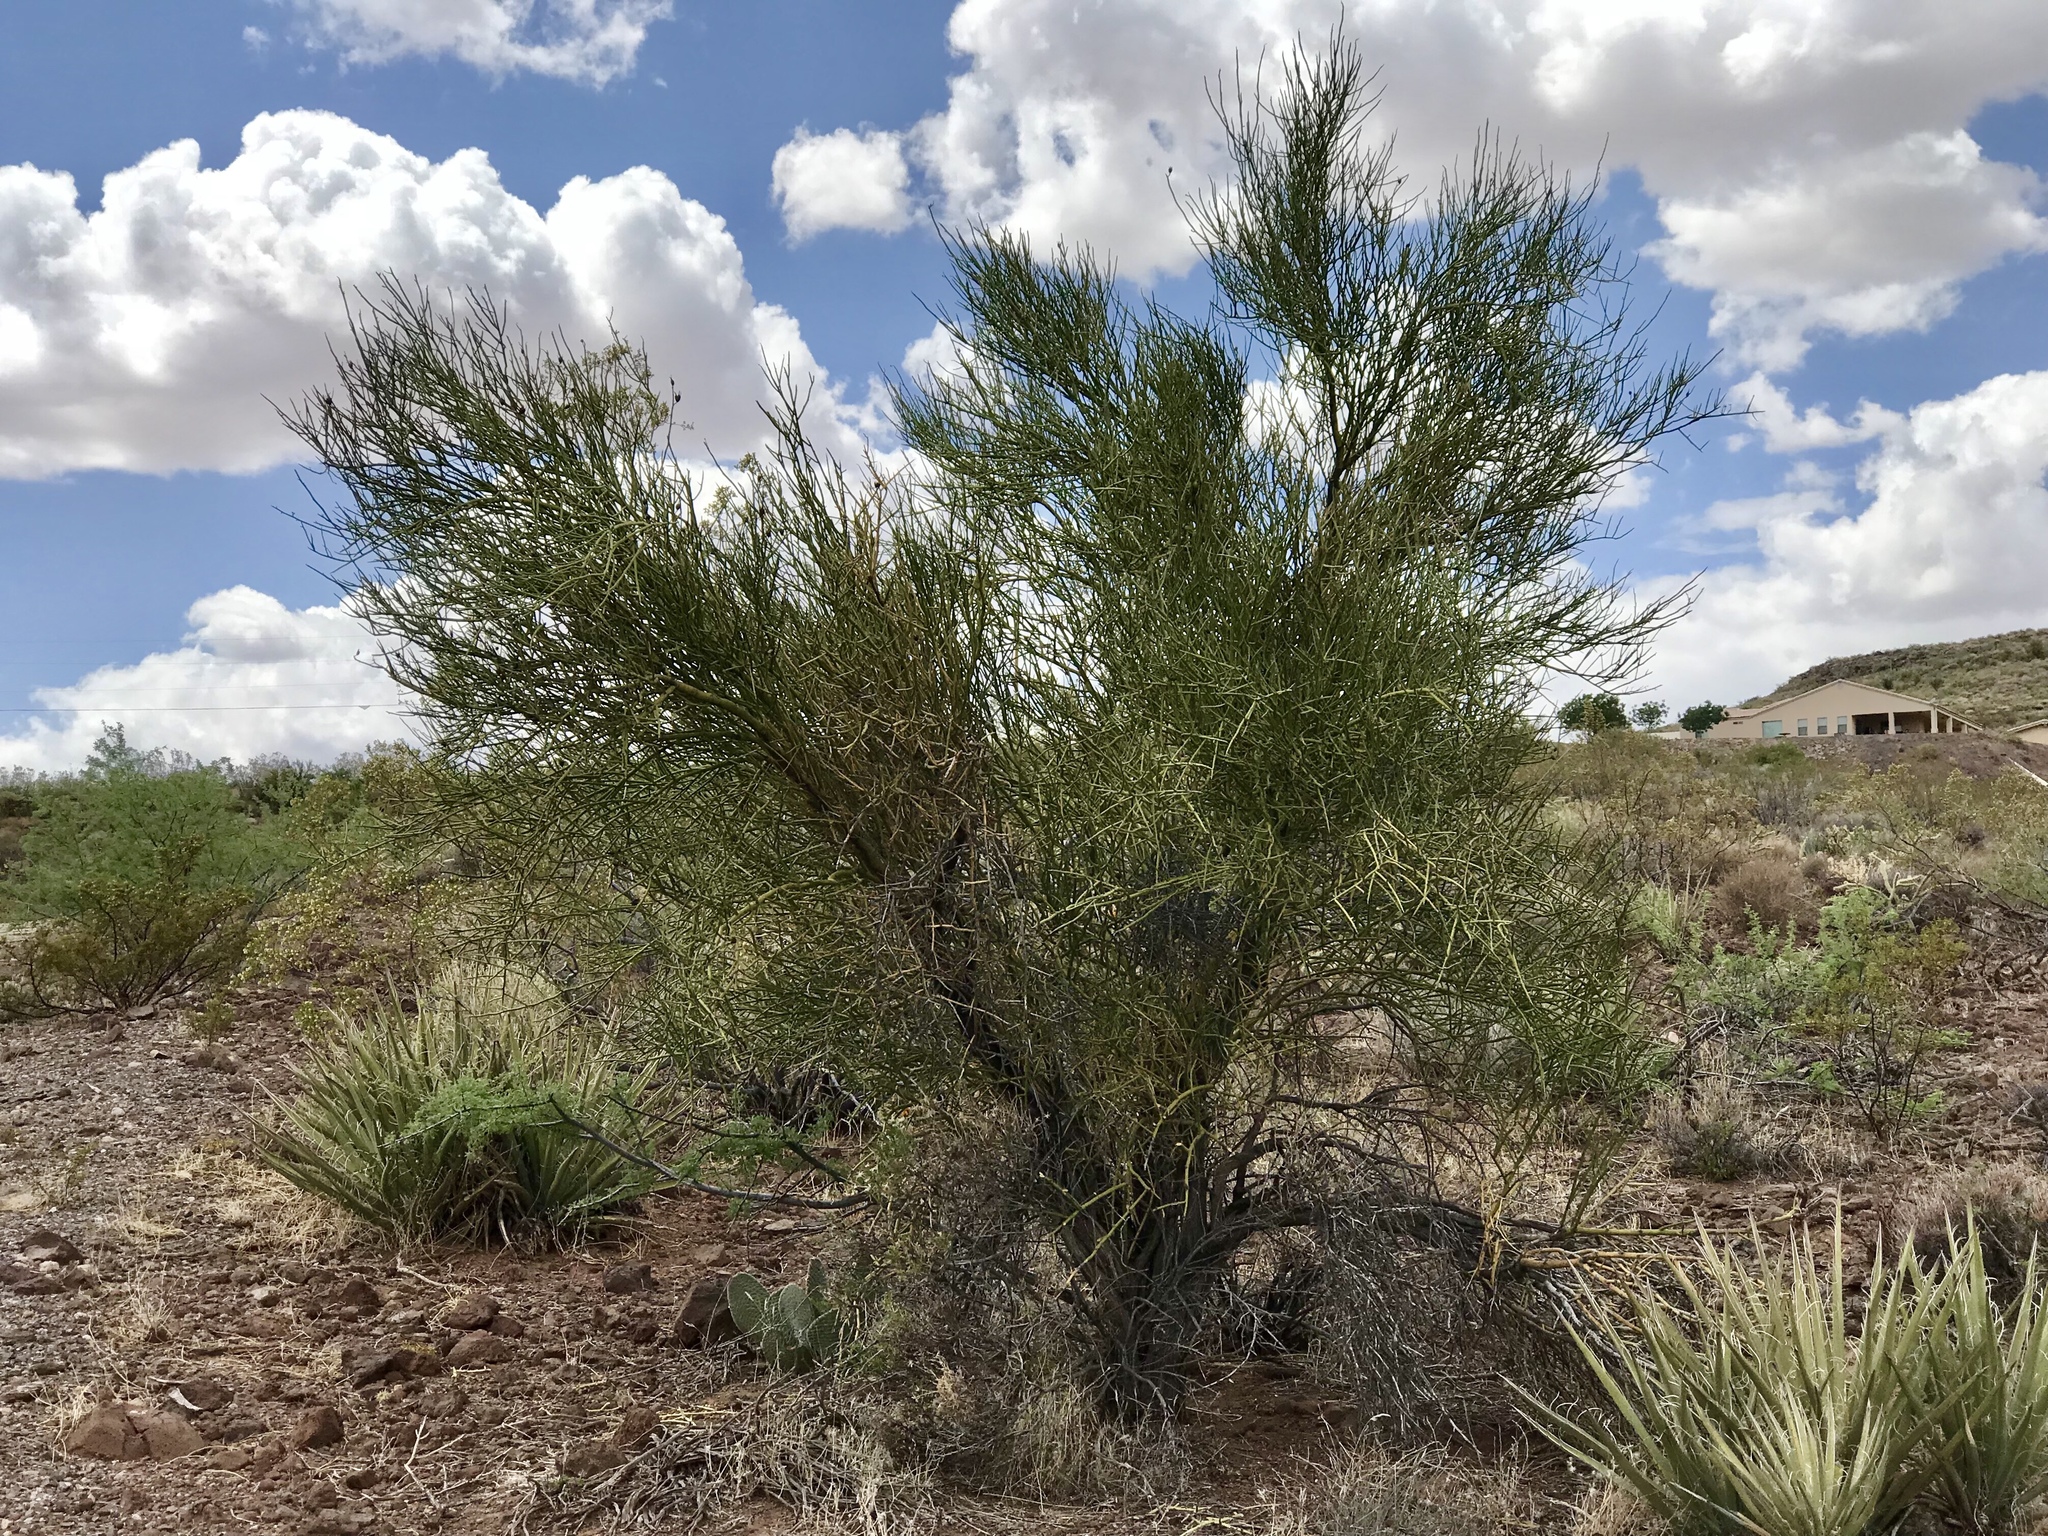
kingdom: Plantae
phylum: Tracheophyta
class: Magnoliopsida
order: Celastrales
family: Celastraceae
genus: Canotia
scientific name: Canotia holacantha
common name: Crucifixion thorns
